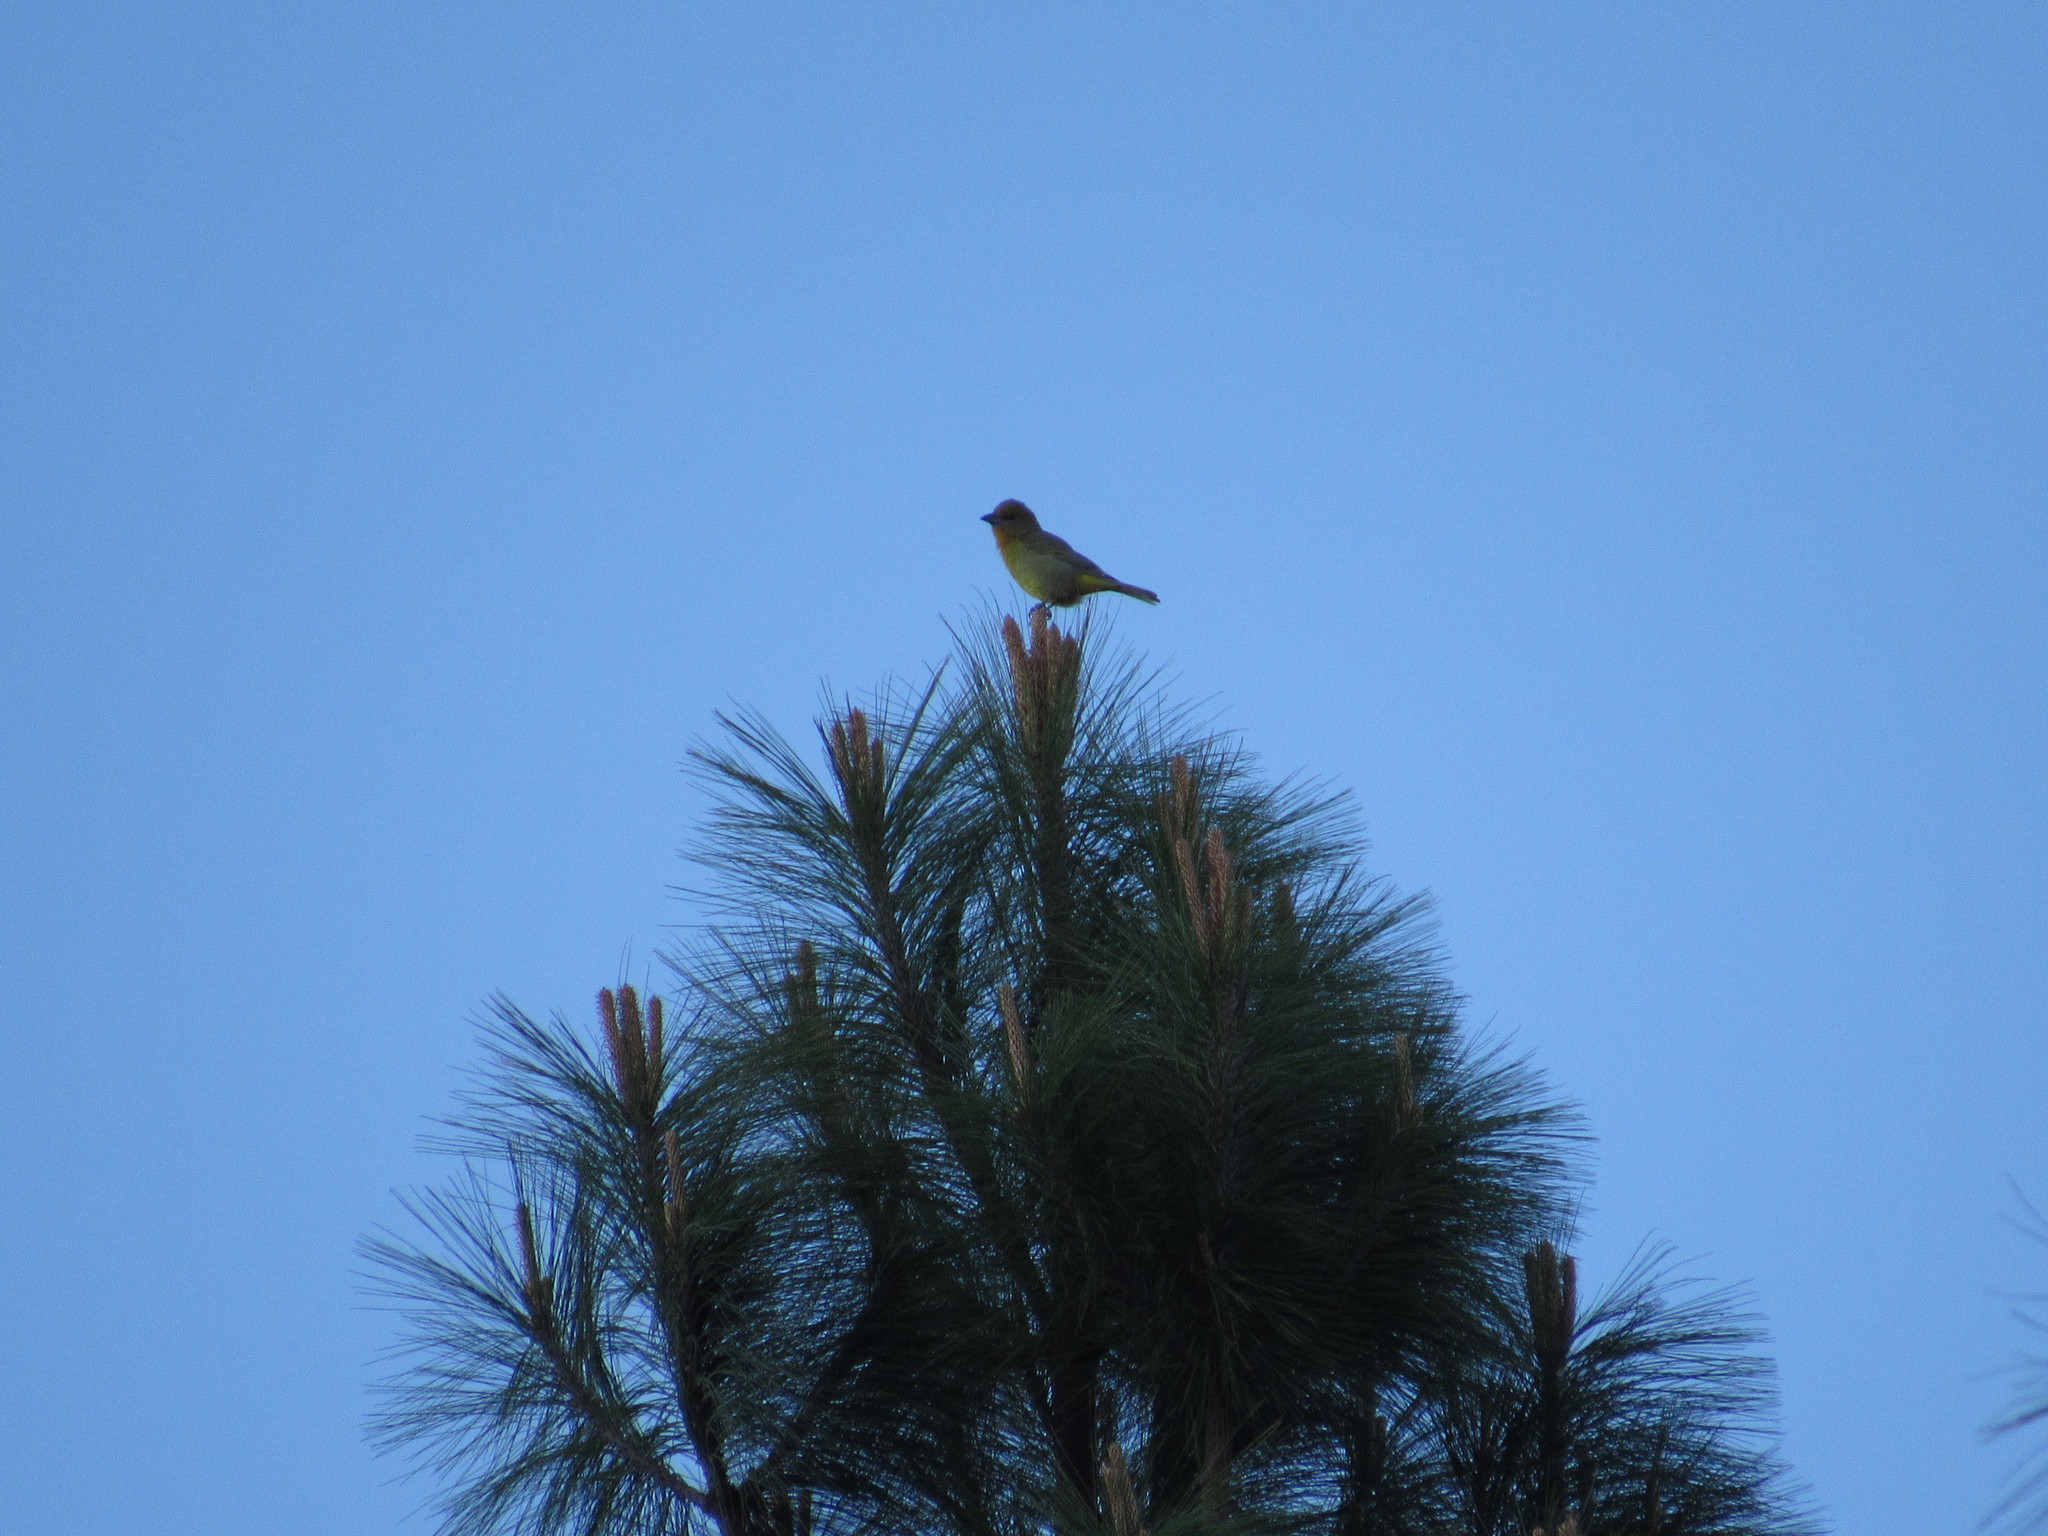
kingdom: Animalia
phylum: Chordata
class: Aves
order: Passeriformes
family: Cardinalidae
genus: Piranga
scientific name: Piranga flava
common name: Red tanager
